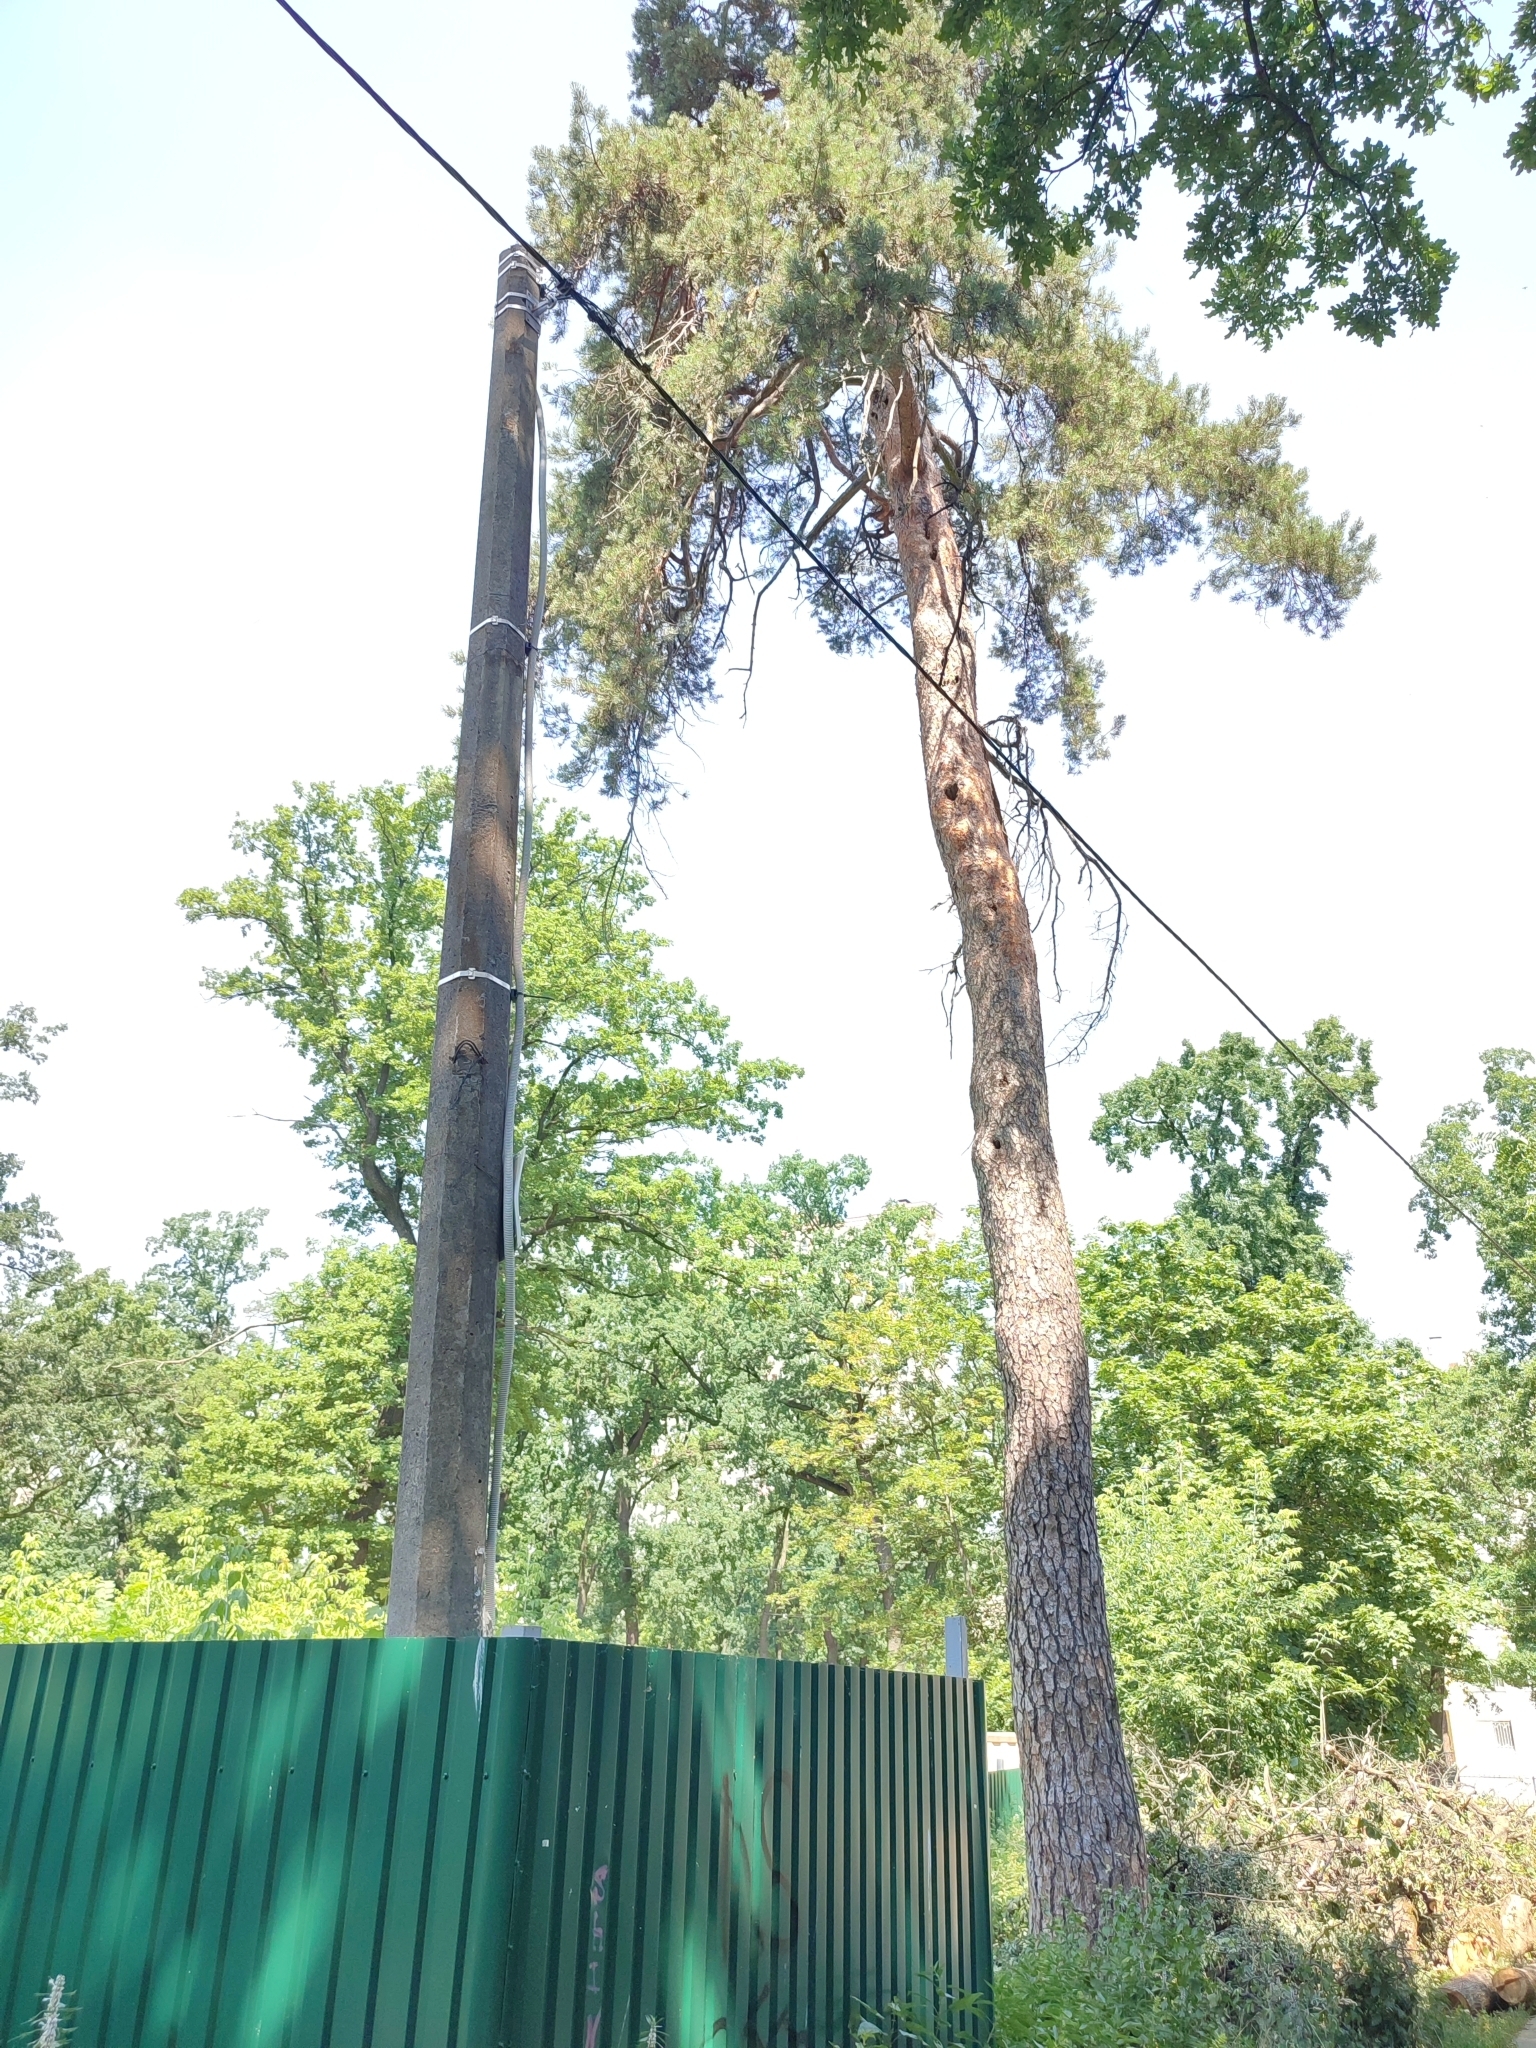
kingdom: Plantae
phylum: Tracheophyta
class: Pinopsida
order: Pinales
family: Pinaceae
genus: Pinus
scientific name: Pinus sylvestris
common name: Scots pine
